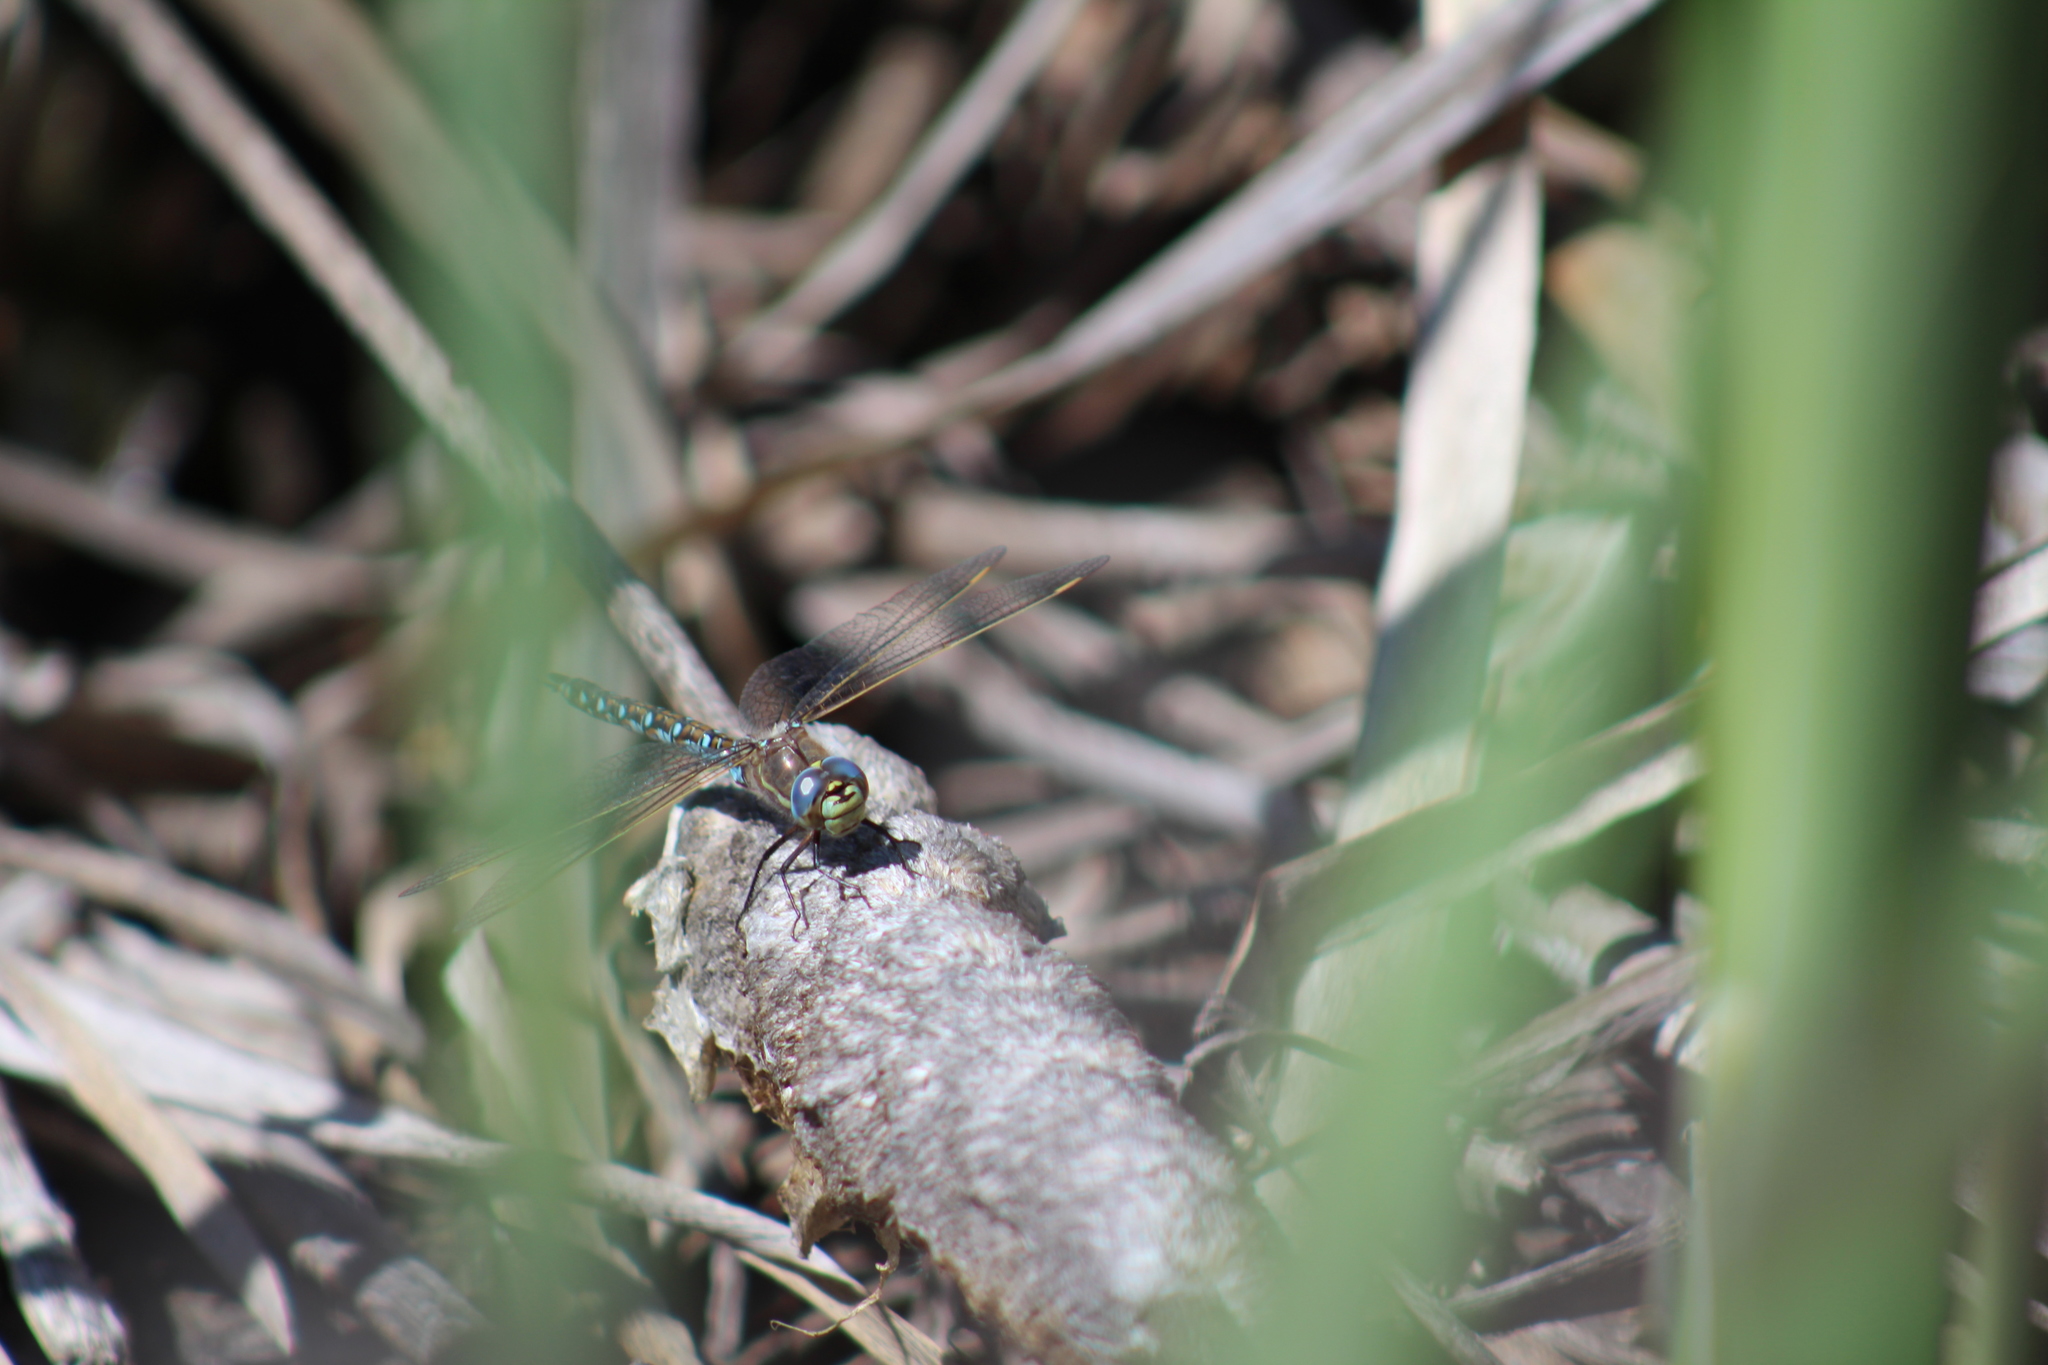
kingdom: Animalia
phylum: Arthropoda
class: Insecta
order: Odonata
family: Aeshnidae
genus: Rhionaeschna
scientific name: Rhionaeschna californica
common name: California darner
